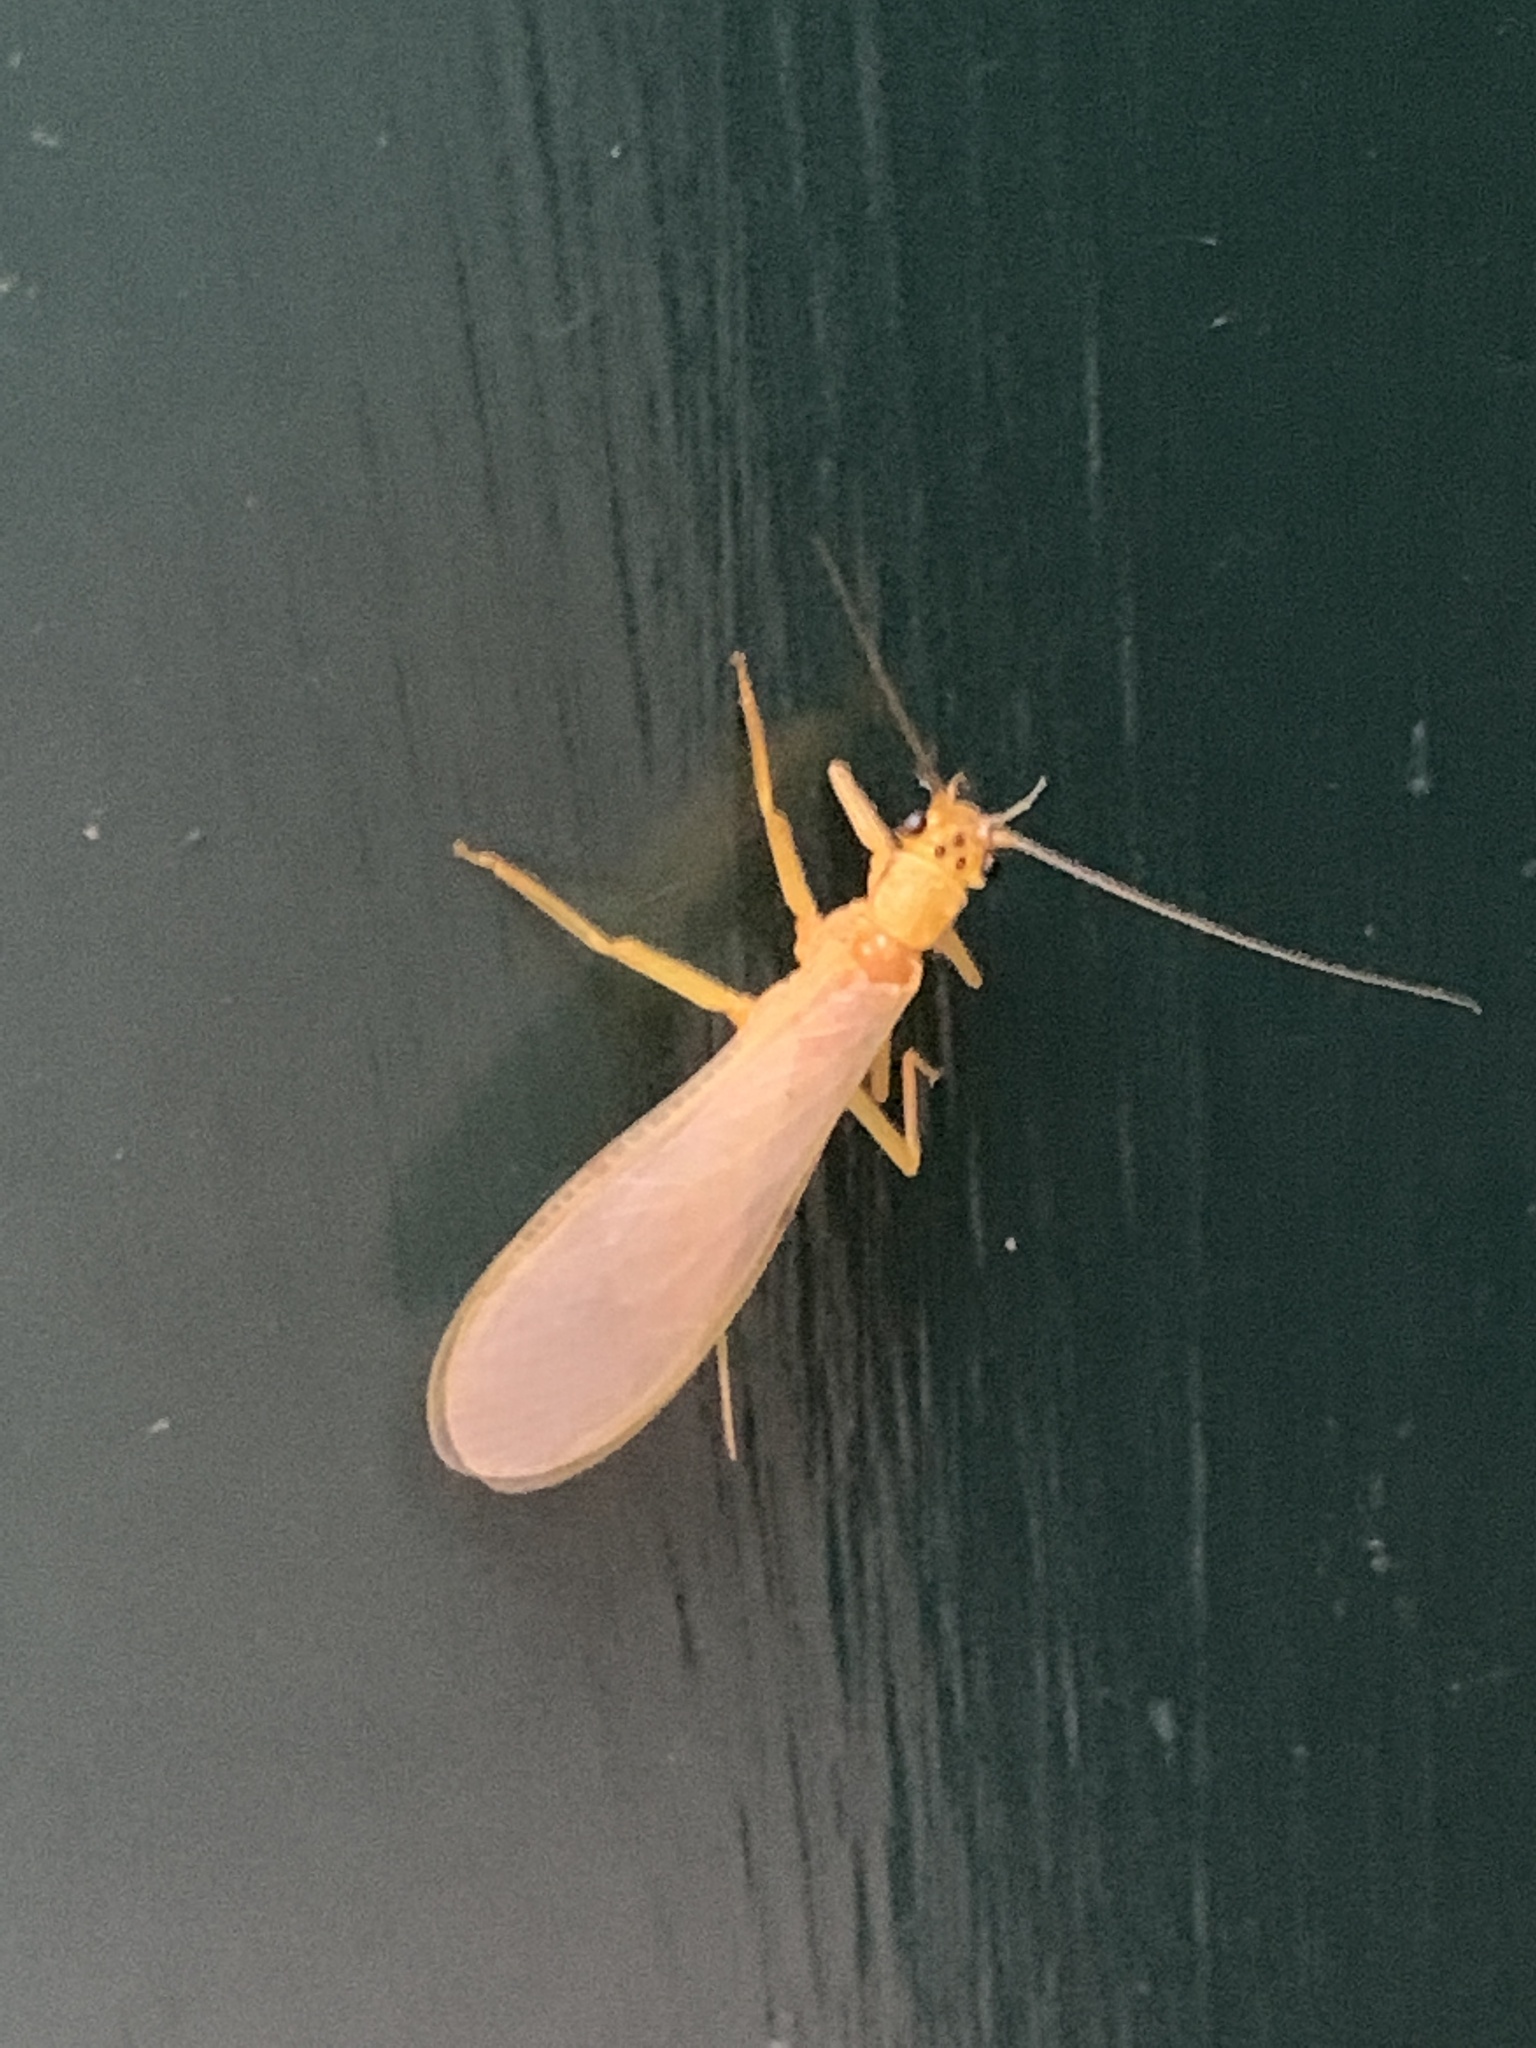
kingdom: Animalia
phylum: Arthropoda
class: Insecta
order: Plecoptera
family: Perlidae
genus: Eccoptura
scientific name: Eccoptura xanthenes
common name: Yellow stone
